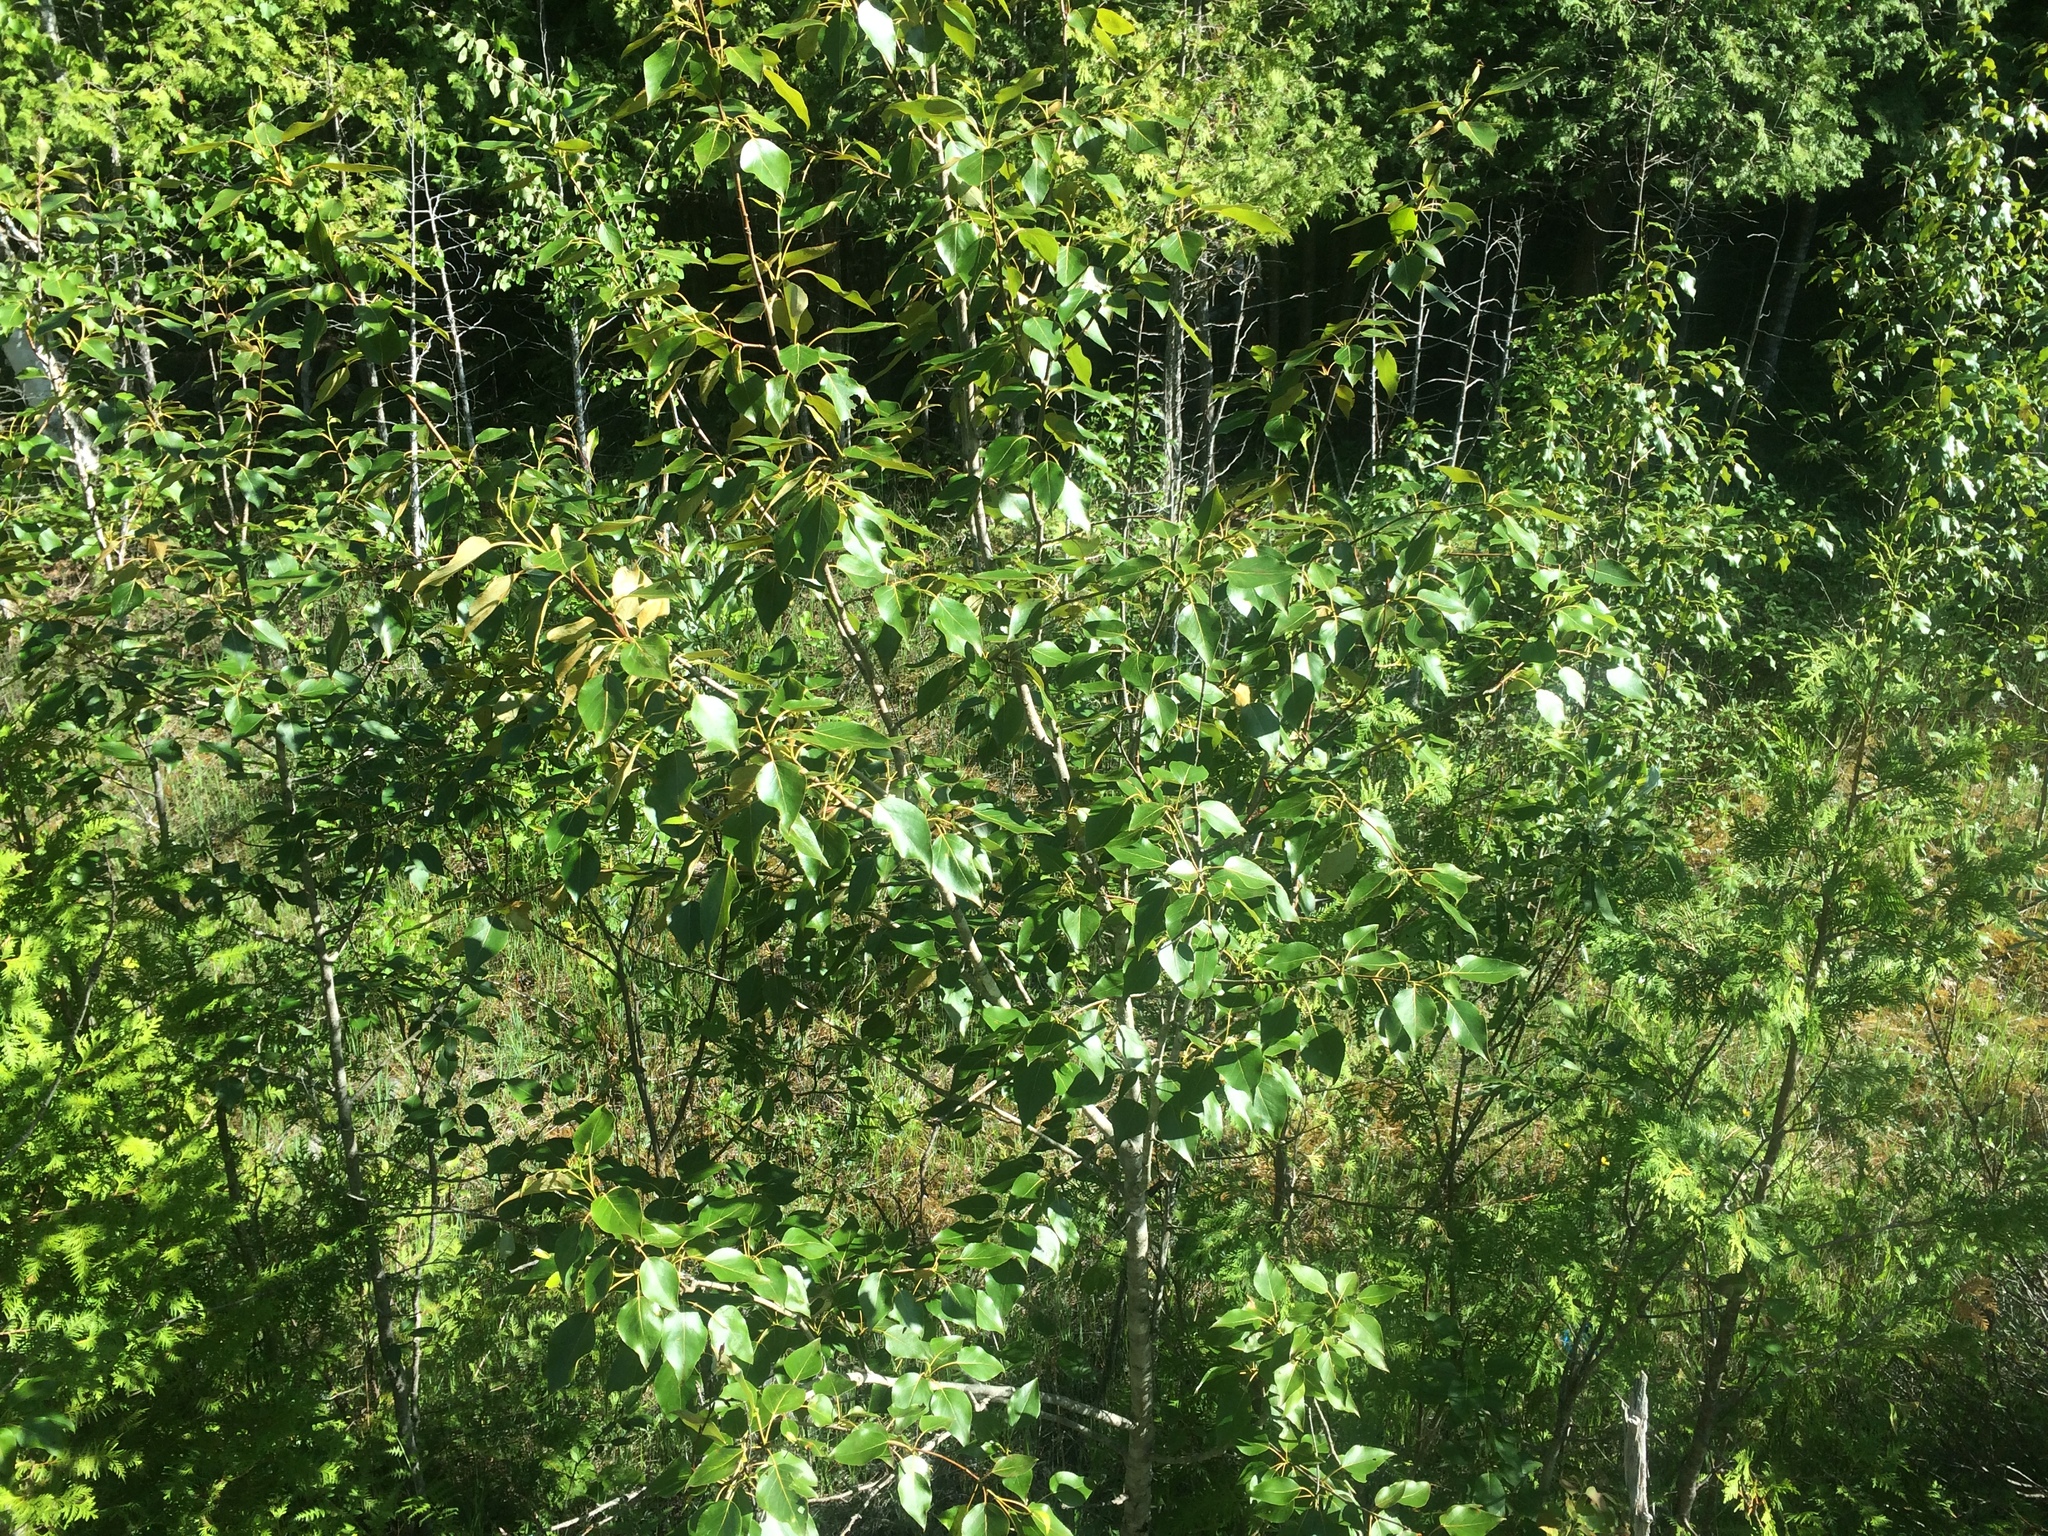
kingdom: Plantae
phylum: Tracheophyta
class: Magnoliopsida
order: Malpighiales
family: Salicaceae
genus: Populus
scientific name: Populus balsamifera
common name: Balsam poplar
